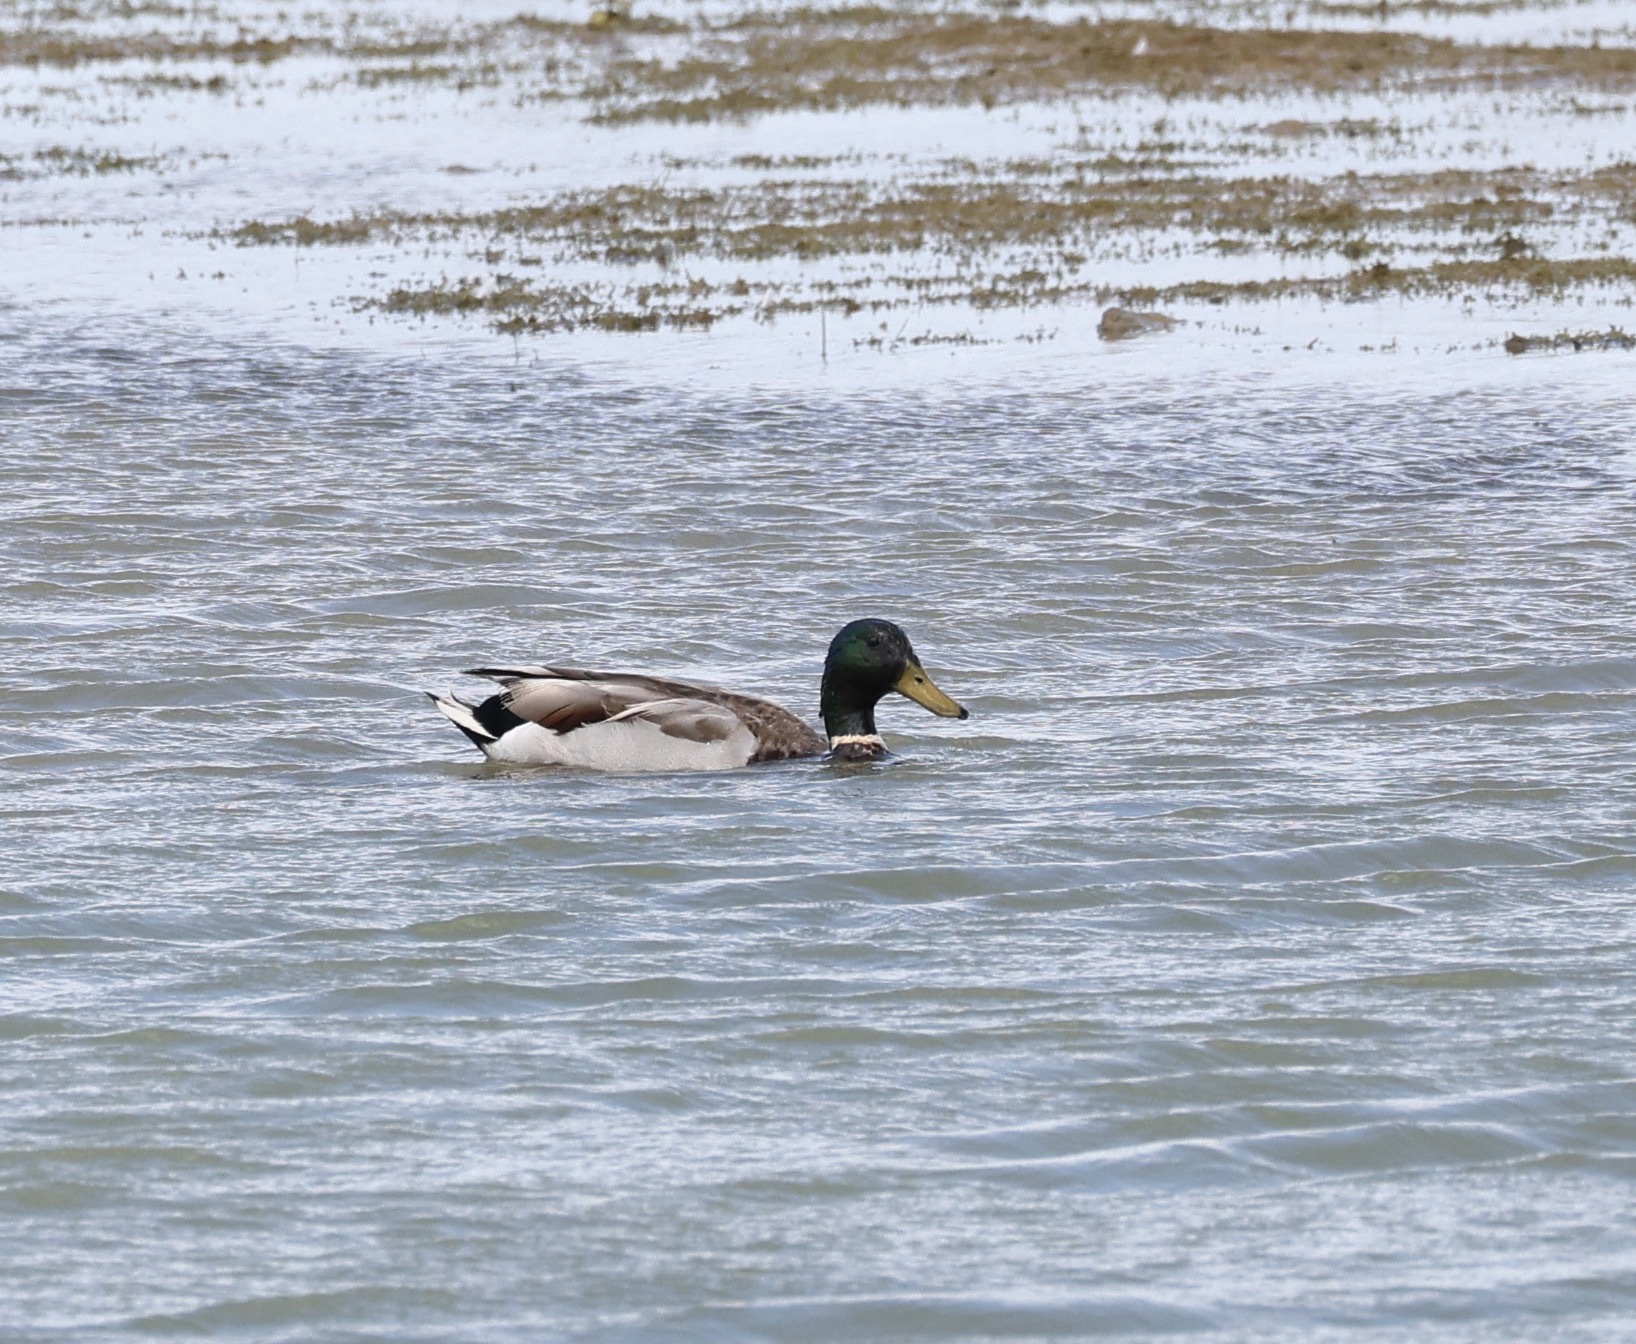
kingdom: Animalia
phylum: Chordata
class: Aves
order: Anseriformes
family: Anatidae
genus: Anas
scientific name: Anas platyrhynchos
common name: Mallard
